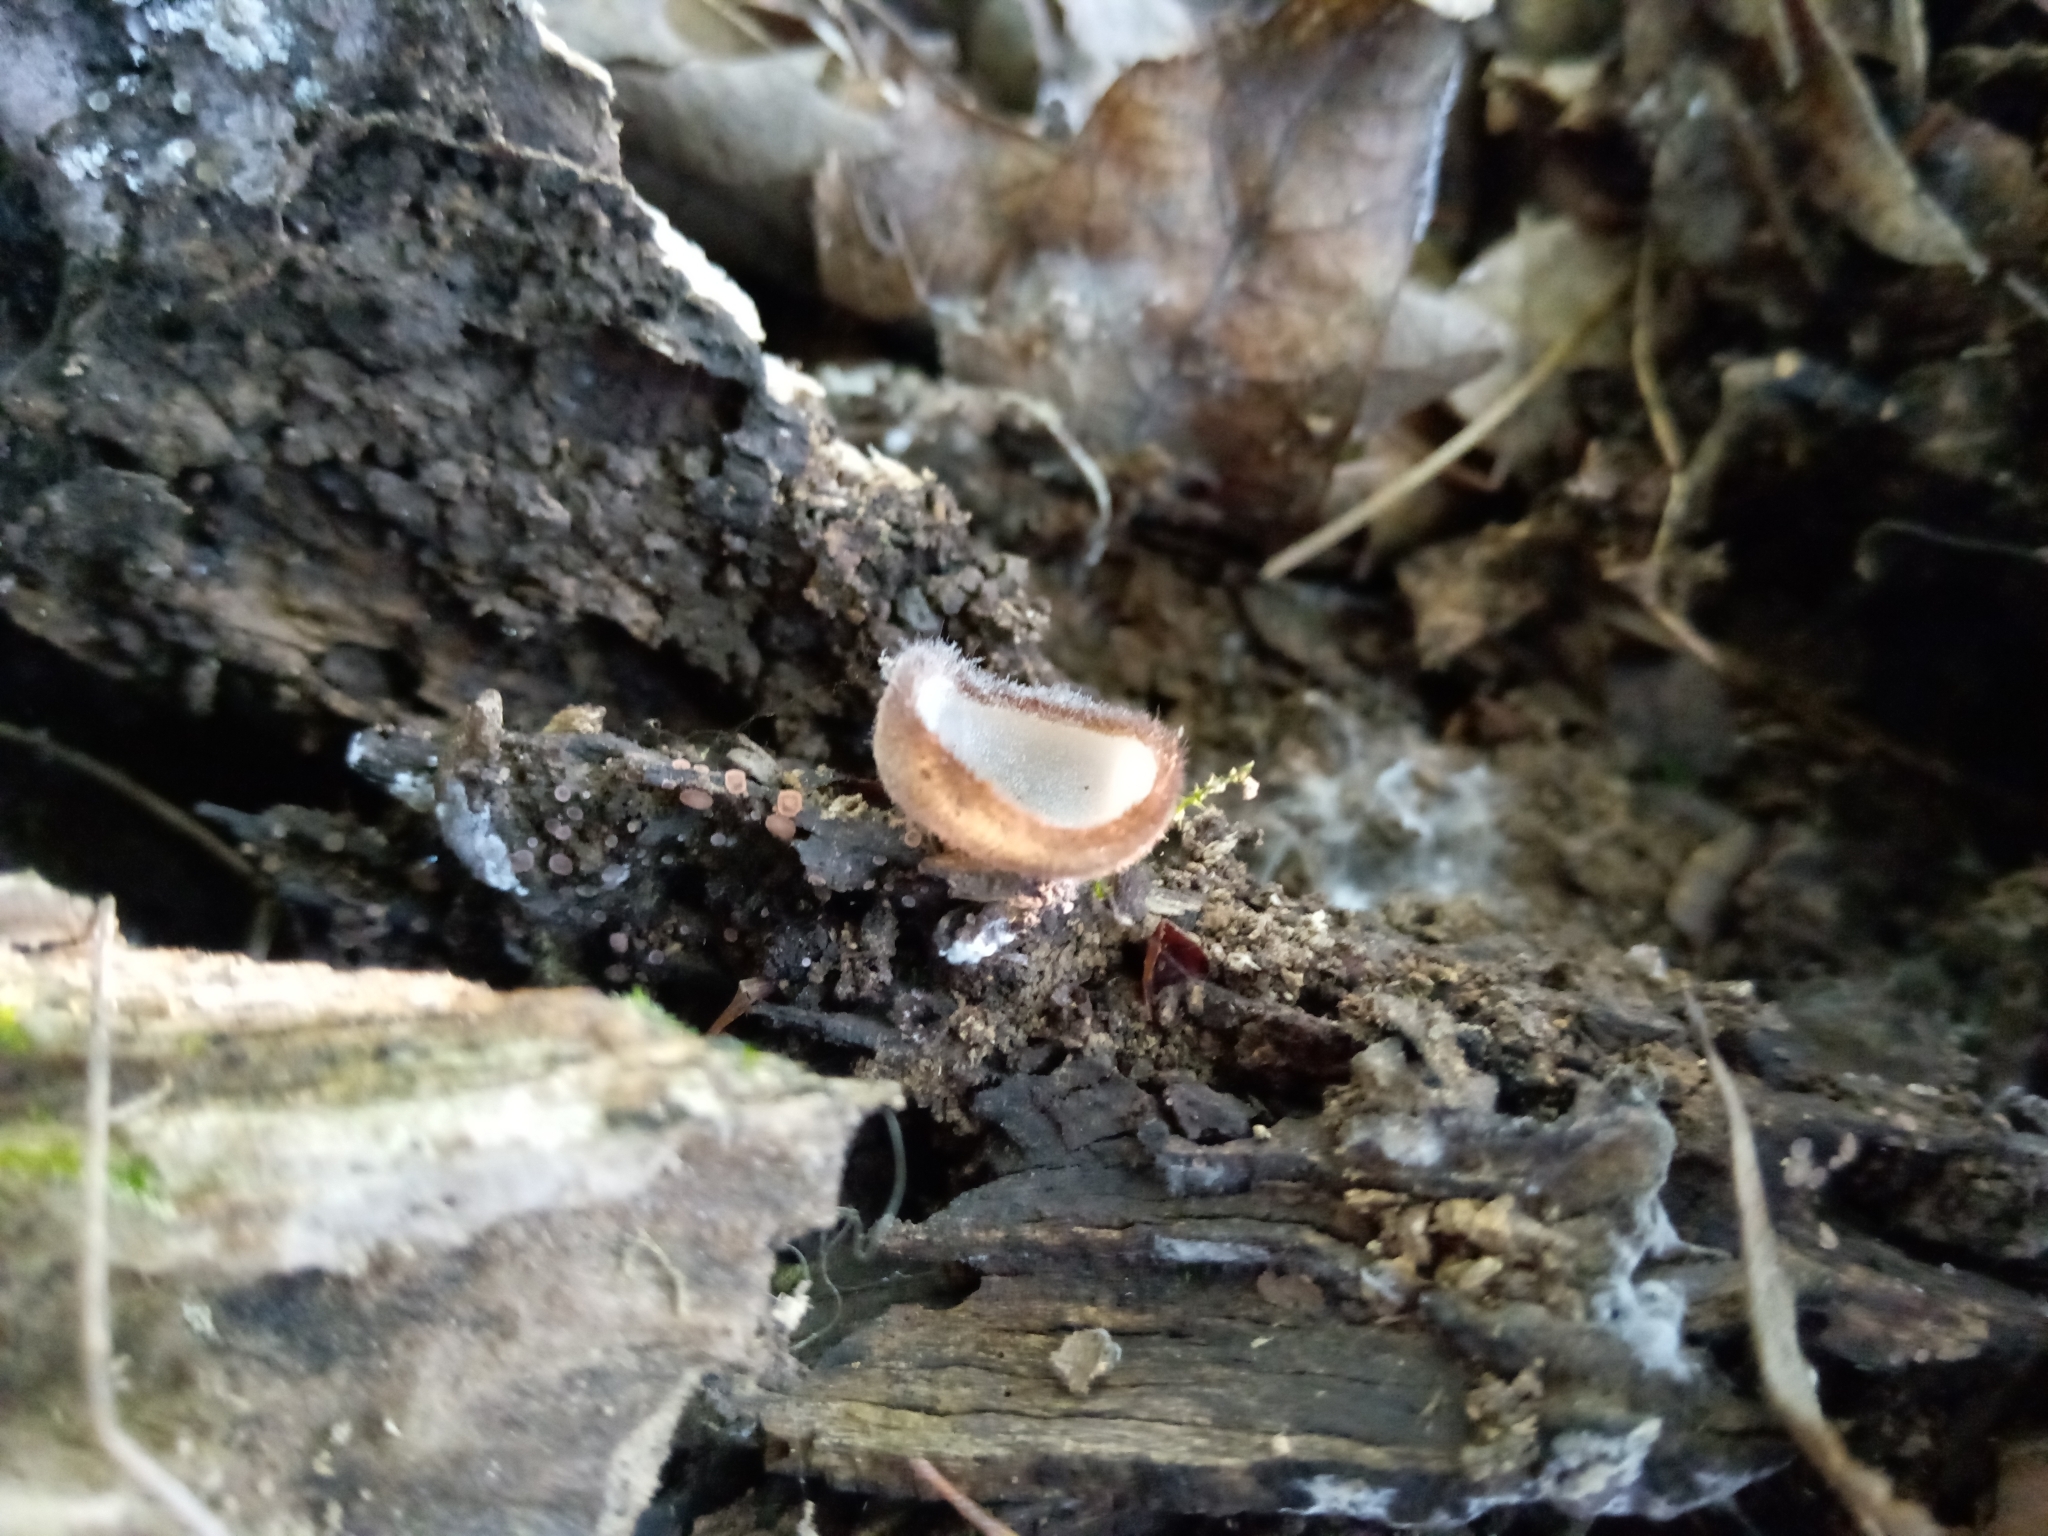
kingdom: Fungi
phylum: Ascomycota
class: Pezizomycetes
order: Pezizales
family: Pyronemataceae
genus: Humaria
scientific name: Humaria hemisphaerica
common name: Glazed cup
